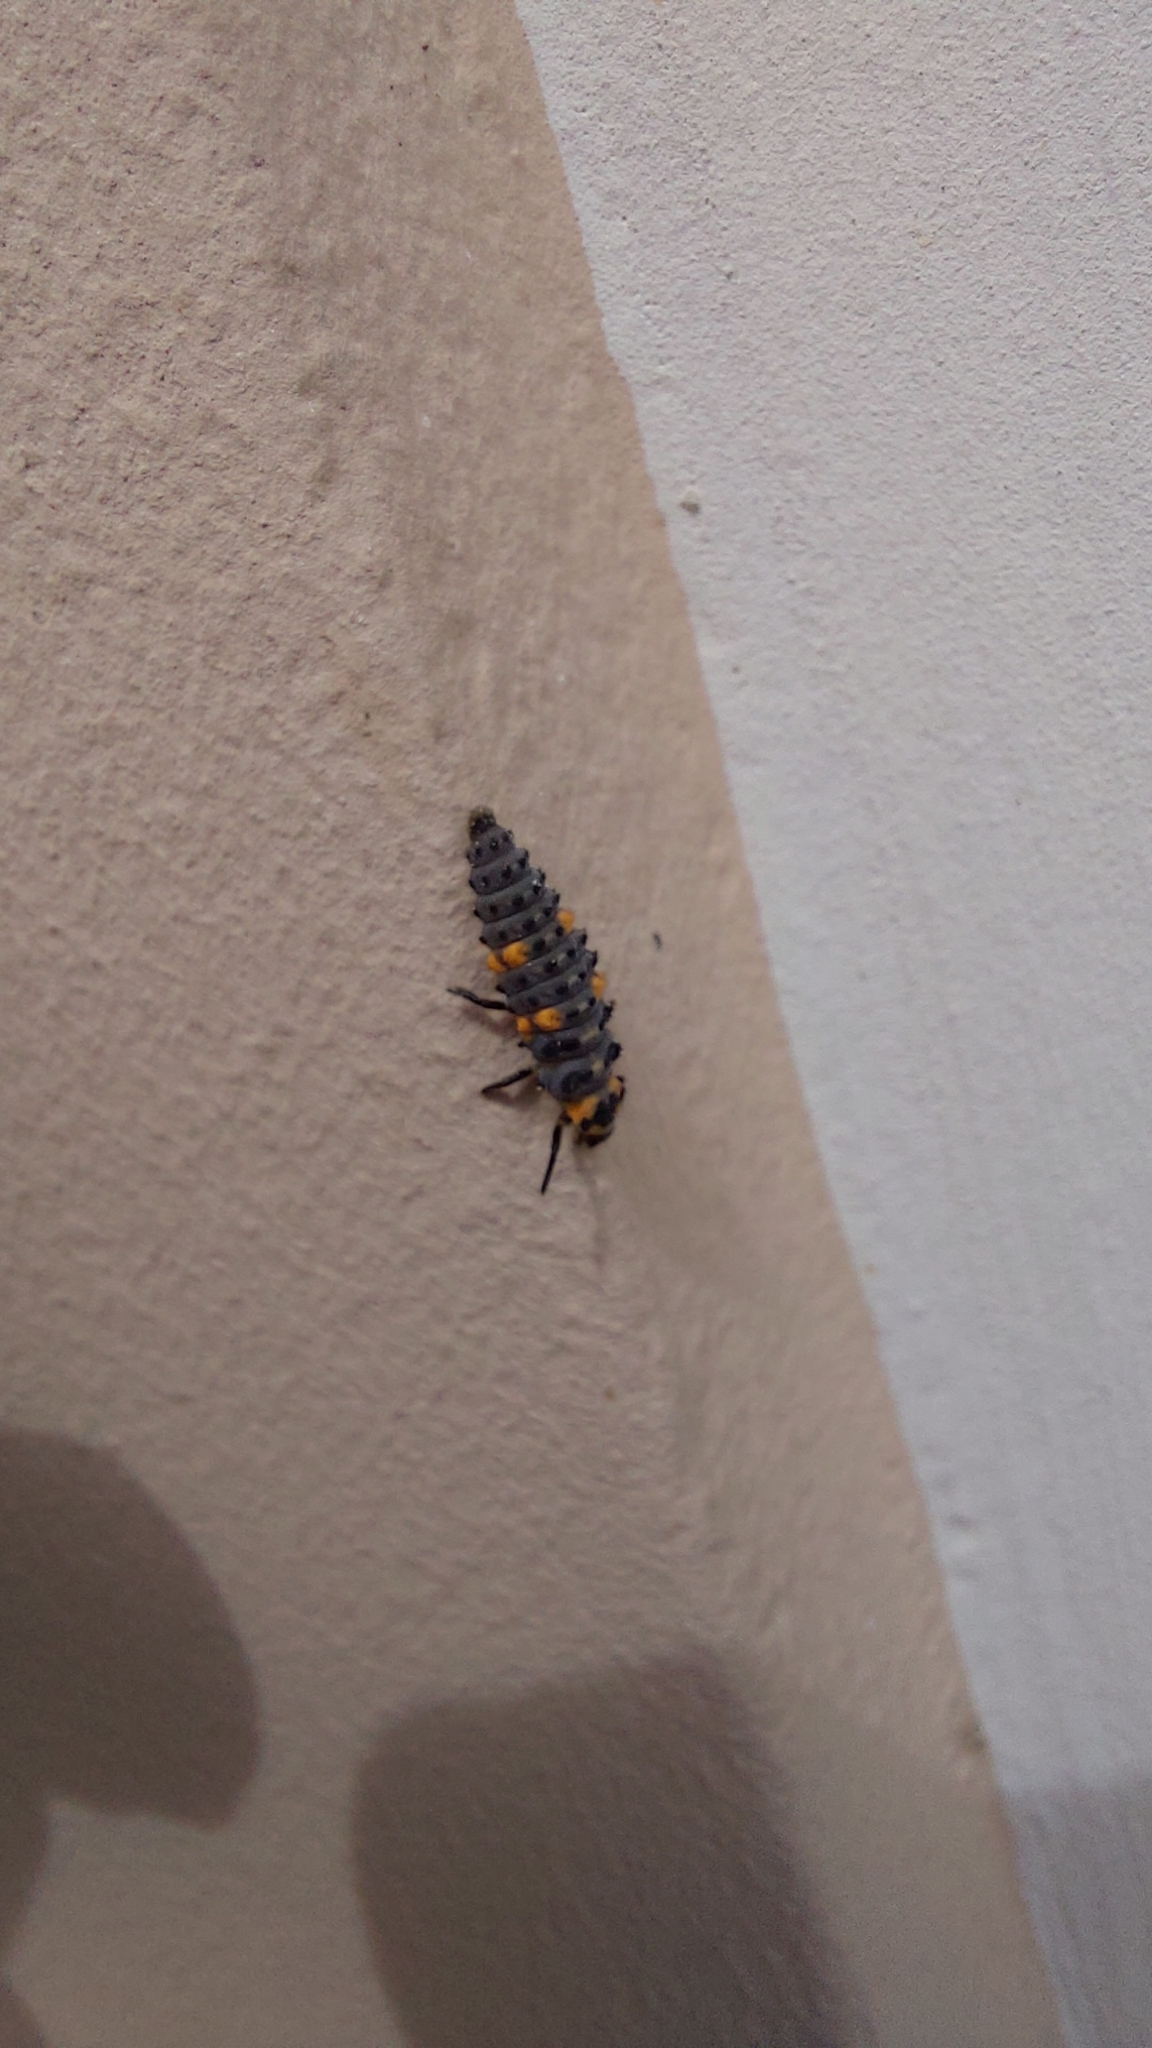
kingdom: Animalia
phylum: Arthropoda
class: Insecta
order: Coleoptera
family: Coccinellidae
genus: Coccinella
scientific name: Coccinella septempunctata
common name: Sevenspotted lady beetle
